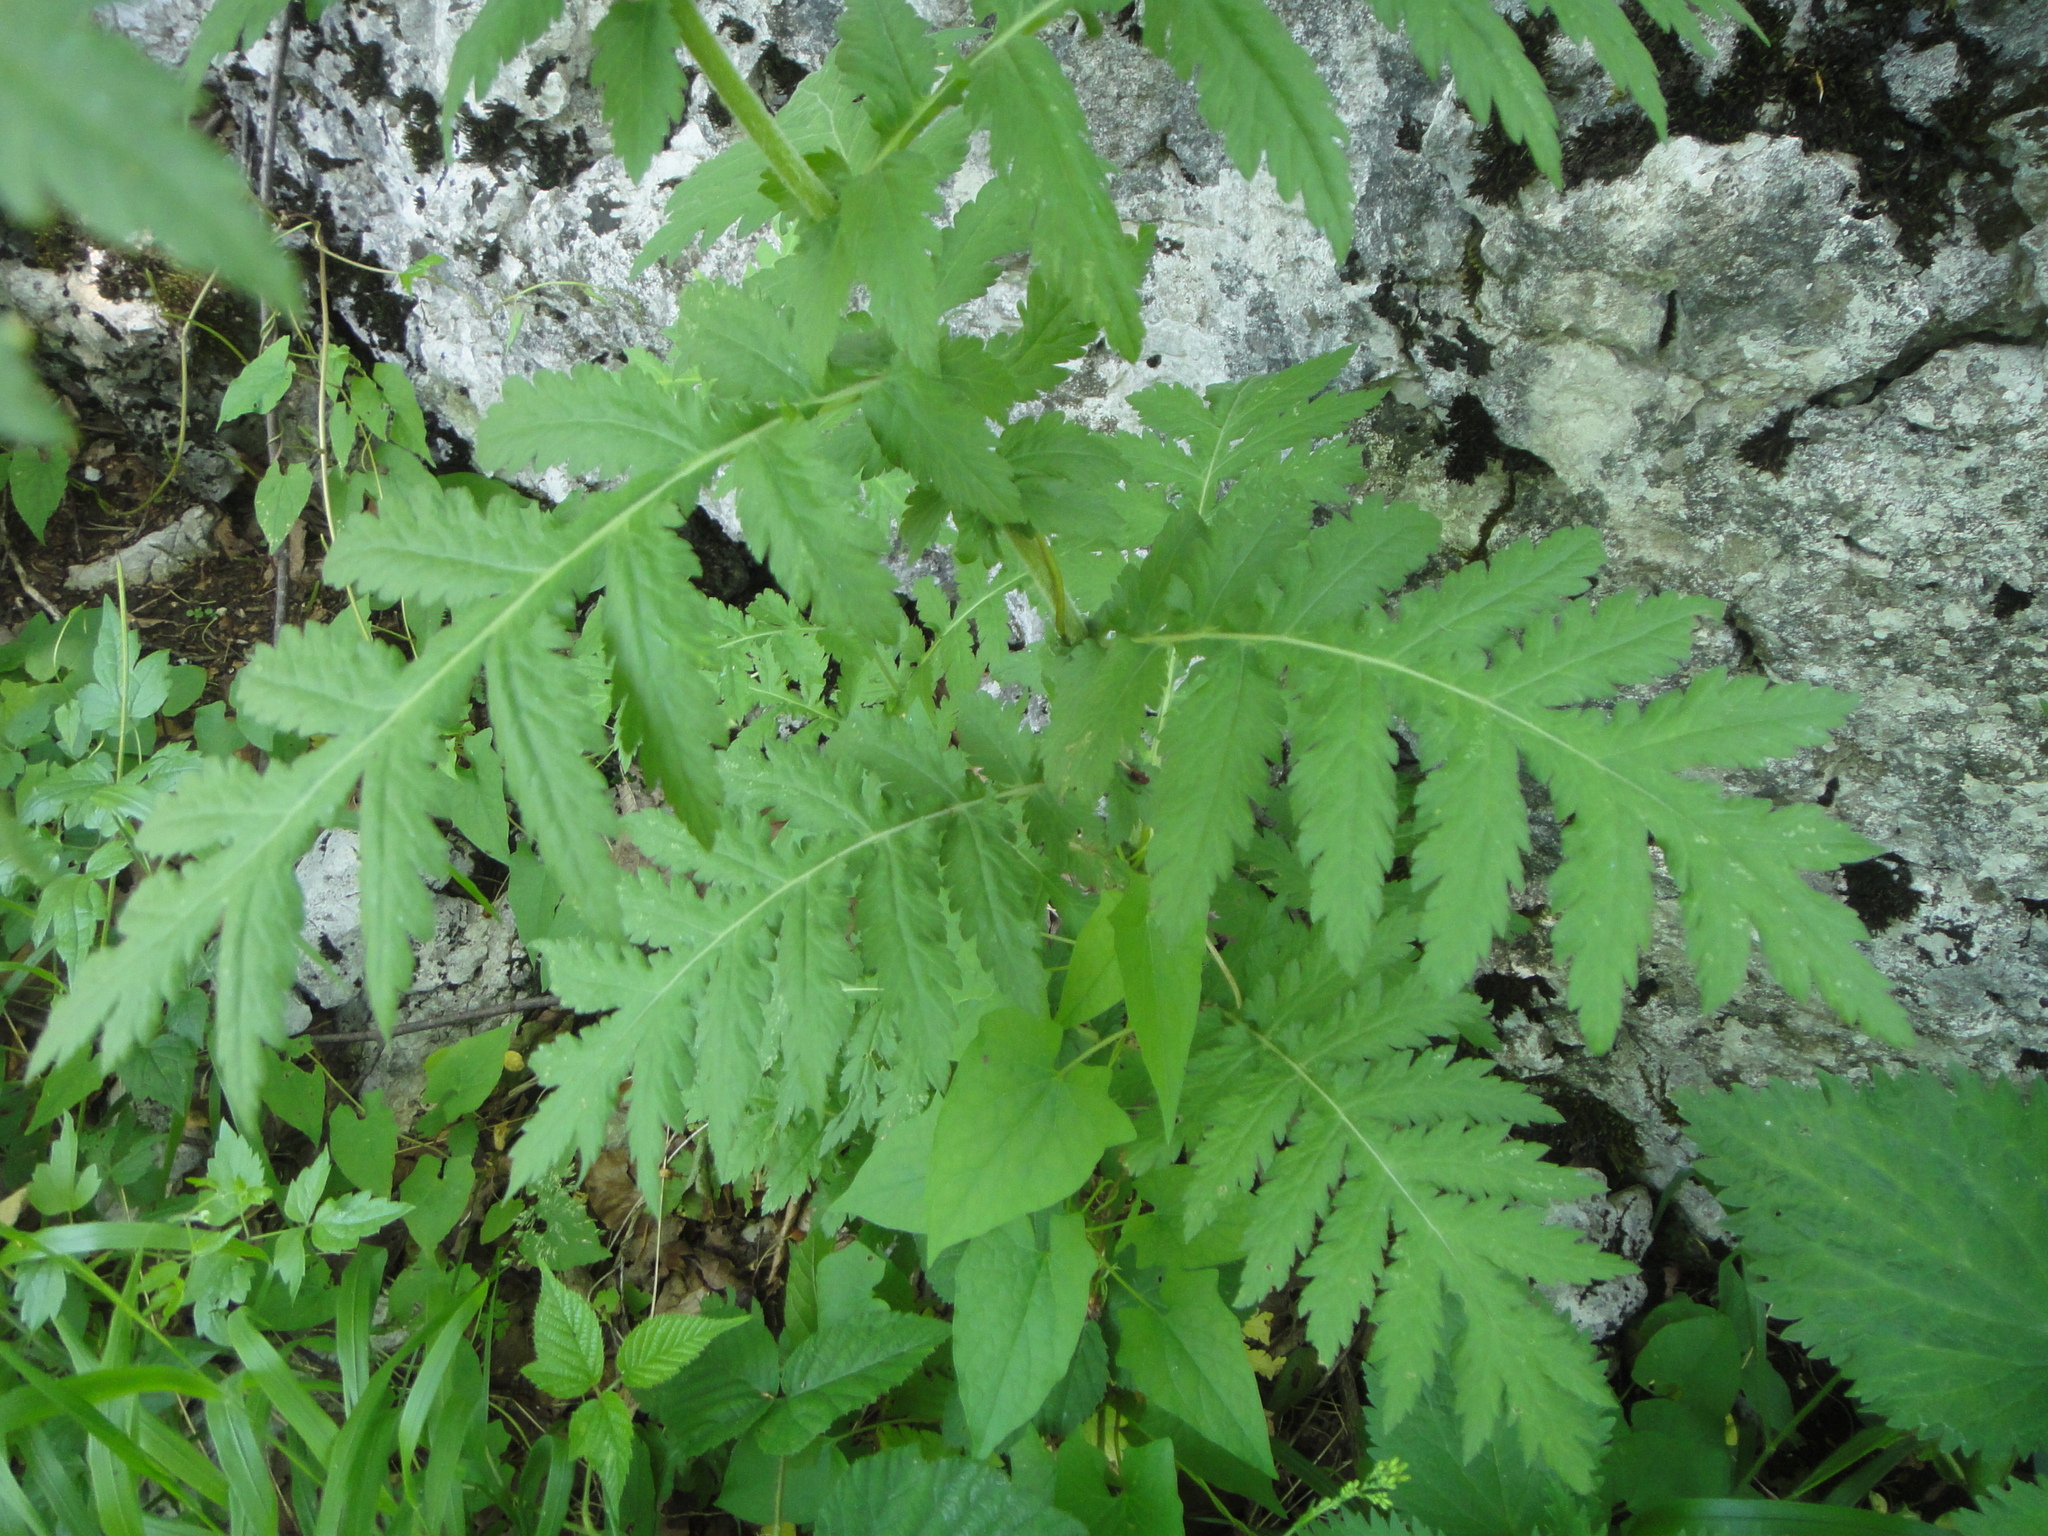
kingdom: Plantae
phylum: Tracheophyta
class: Magnoliopsida
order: Asterales
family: Asteraceae
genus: Tanacetum
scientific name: Tanacetum macrophyllum
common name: Rayed tansy
